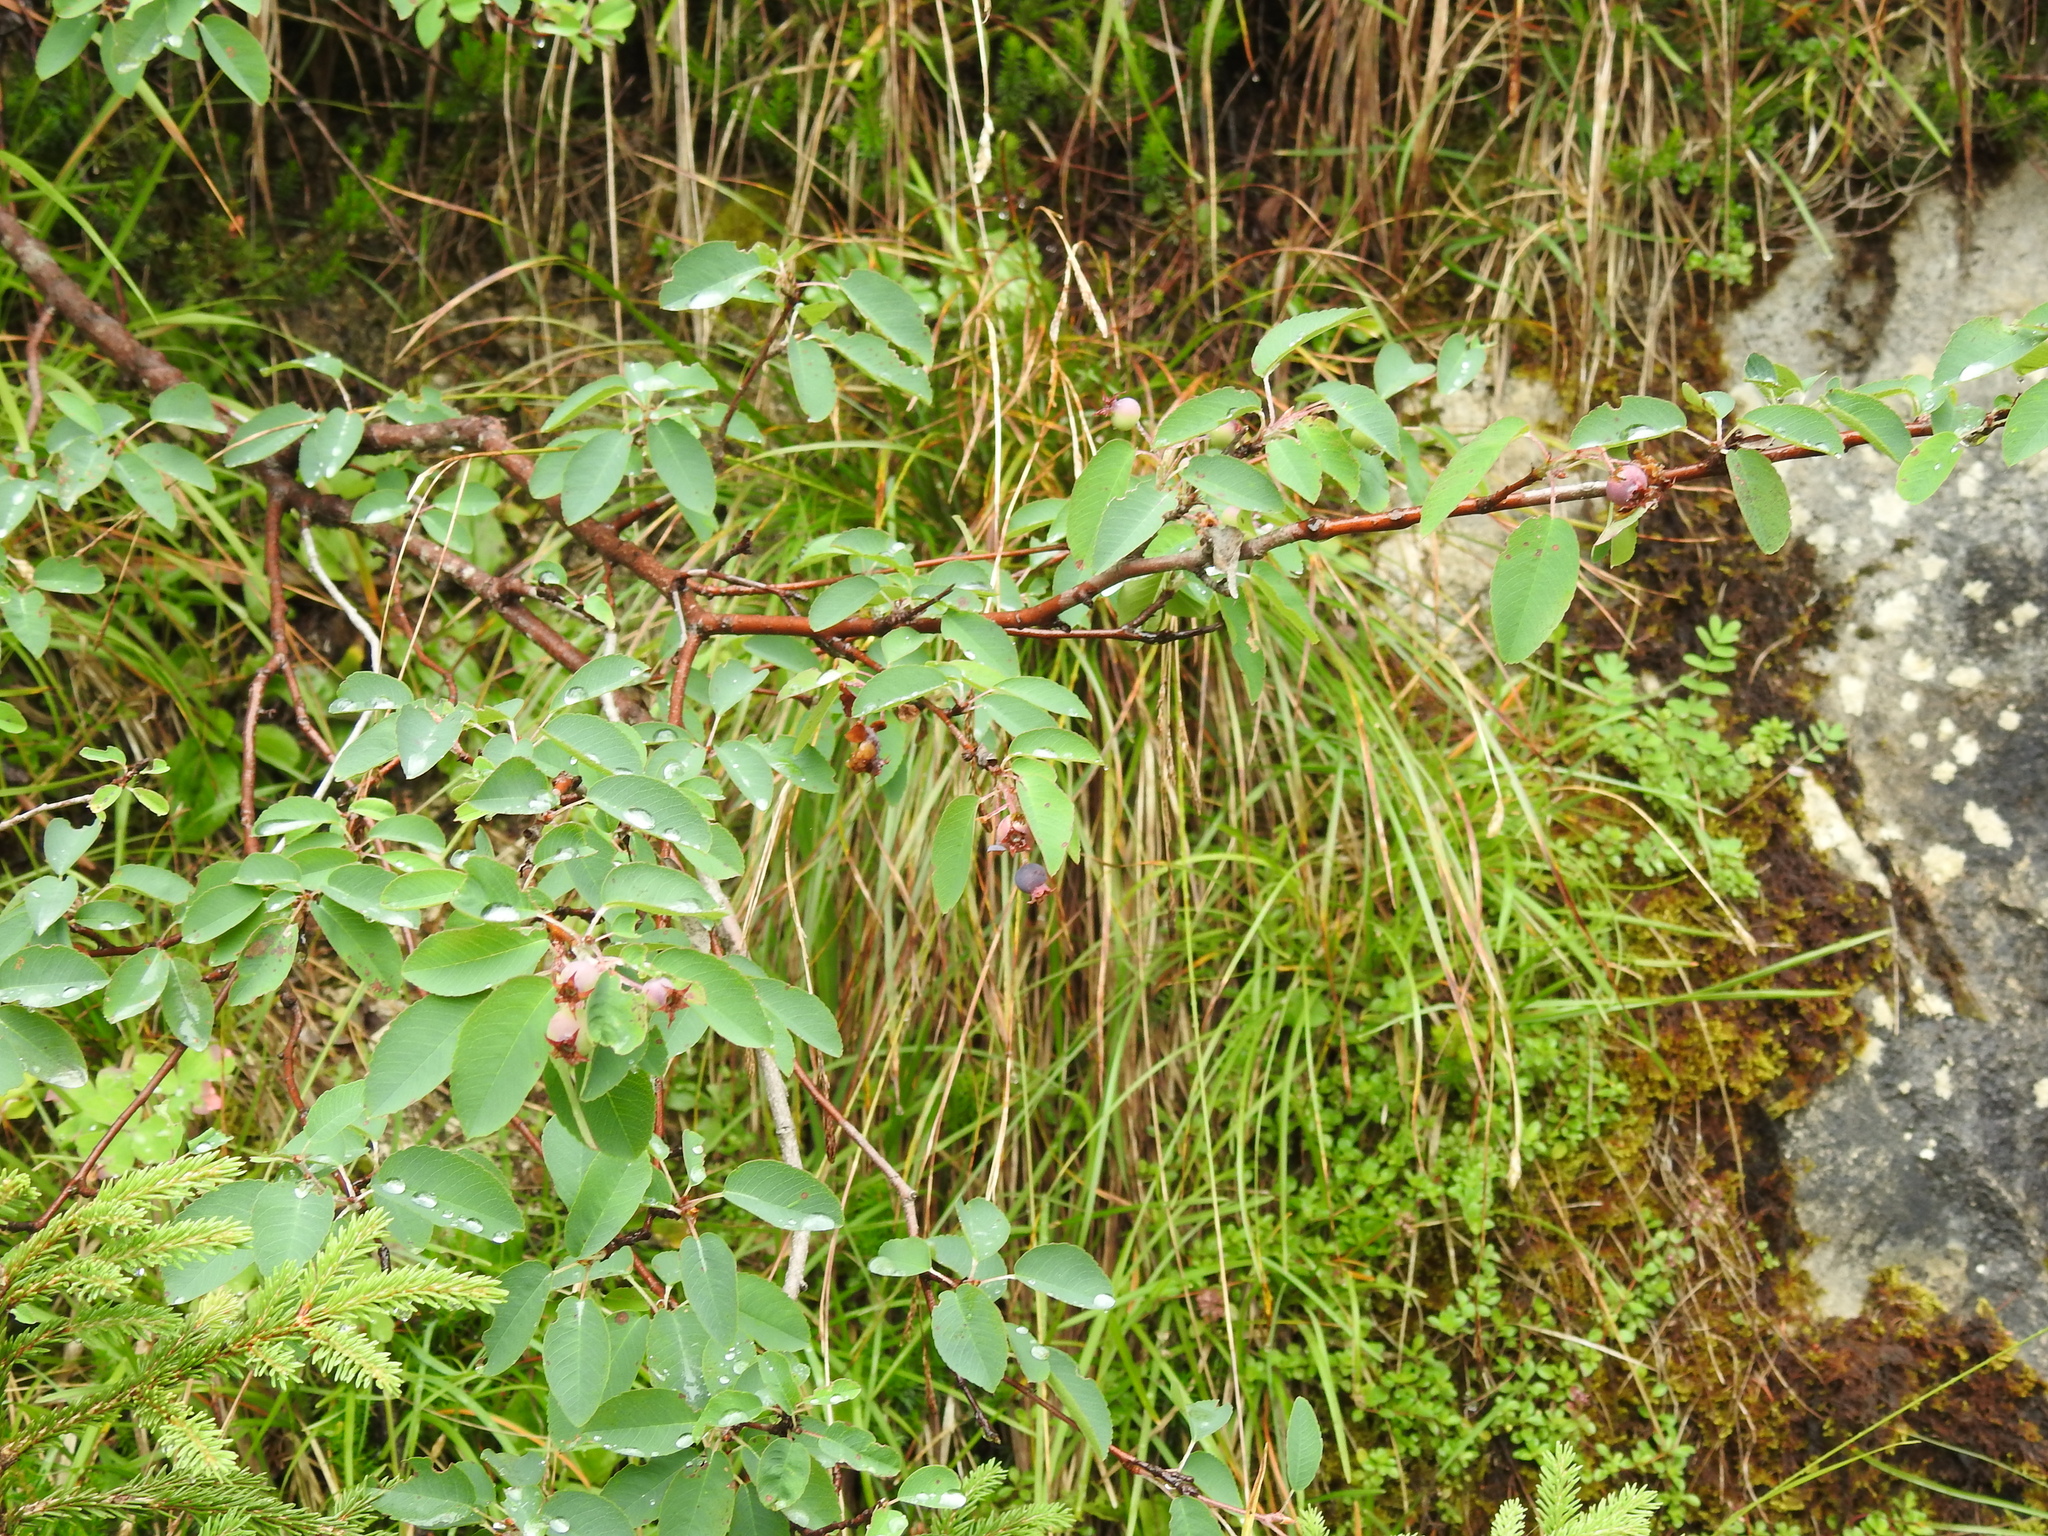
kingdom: Plantae
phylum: Tracheophyta
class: Magnoliopsida
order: Rosales
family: Rosaceae
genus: Amelanchier
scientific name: Amelanchier ovalis
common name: Serviceberry
